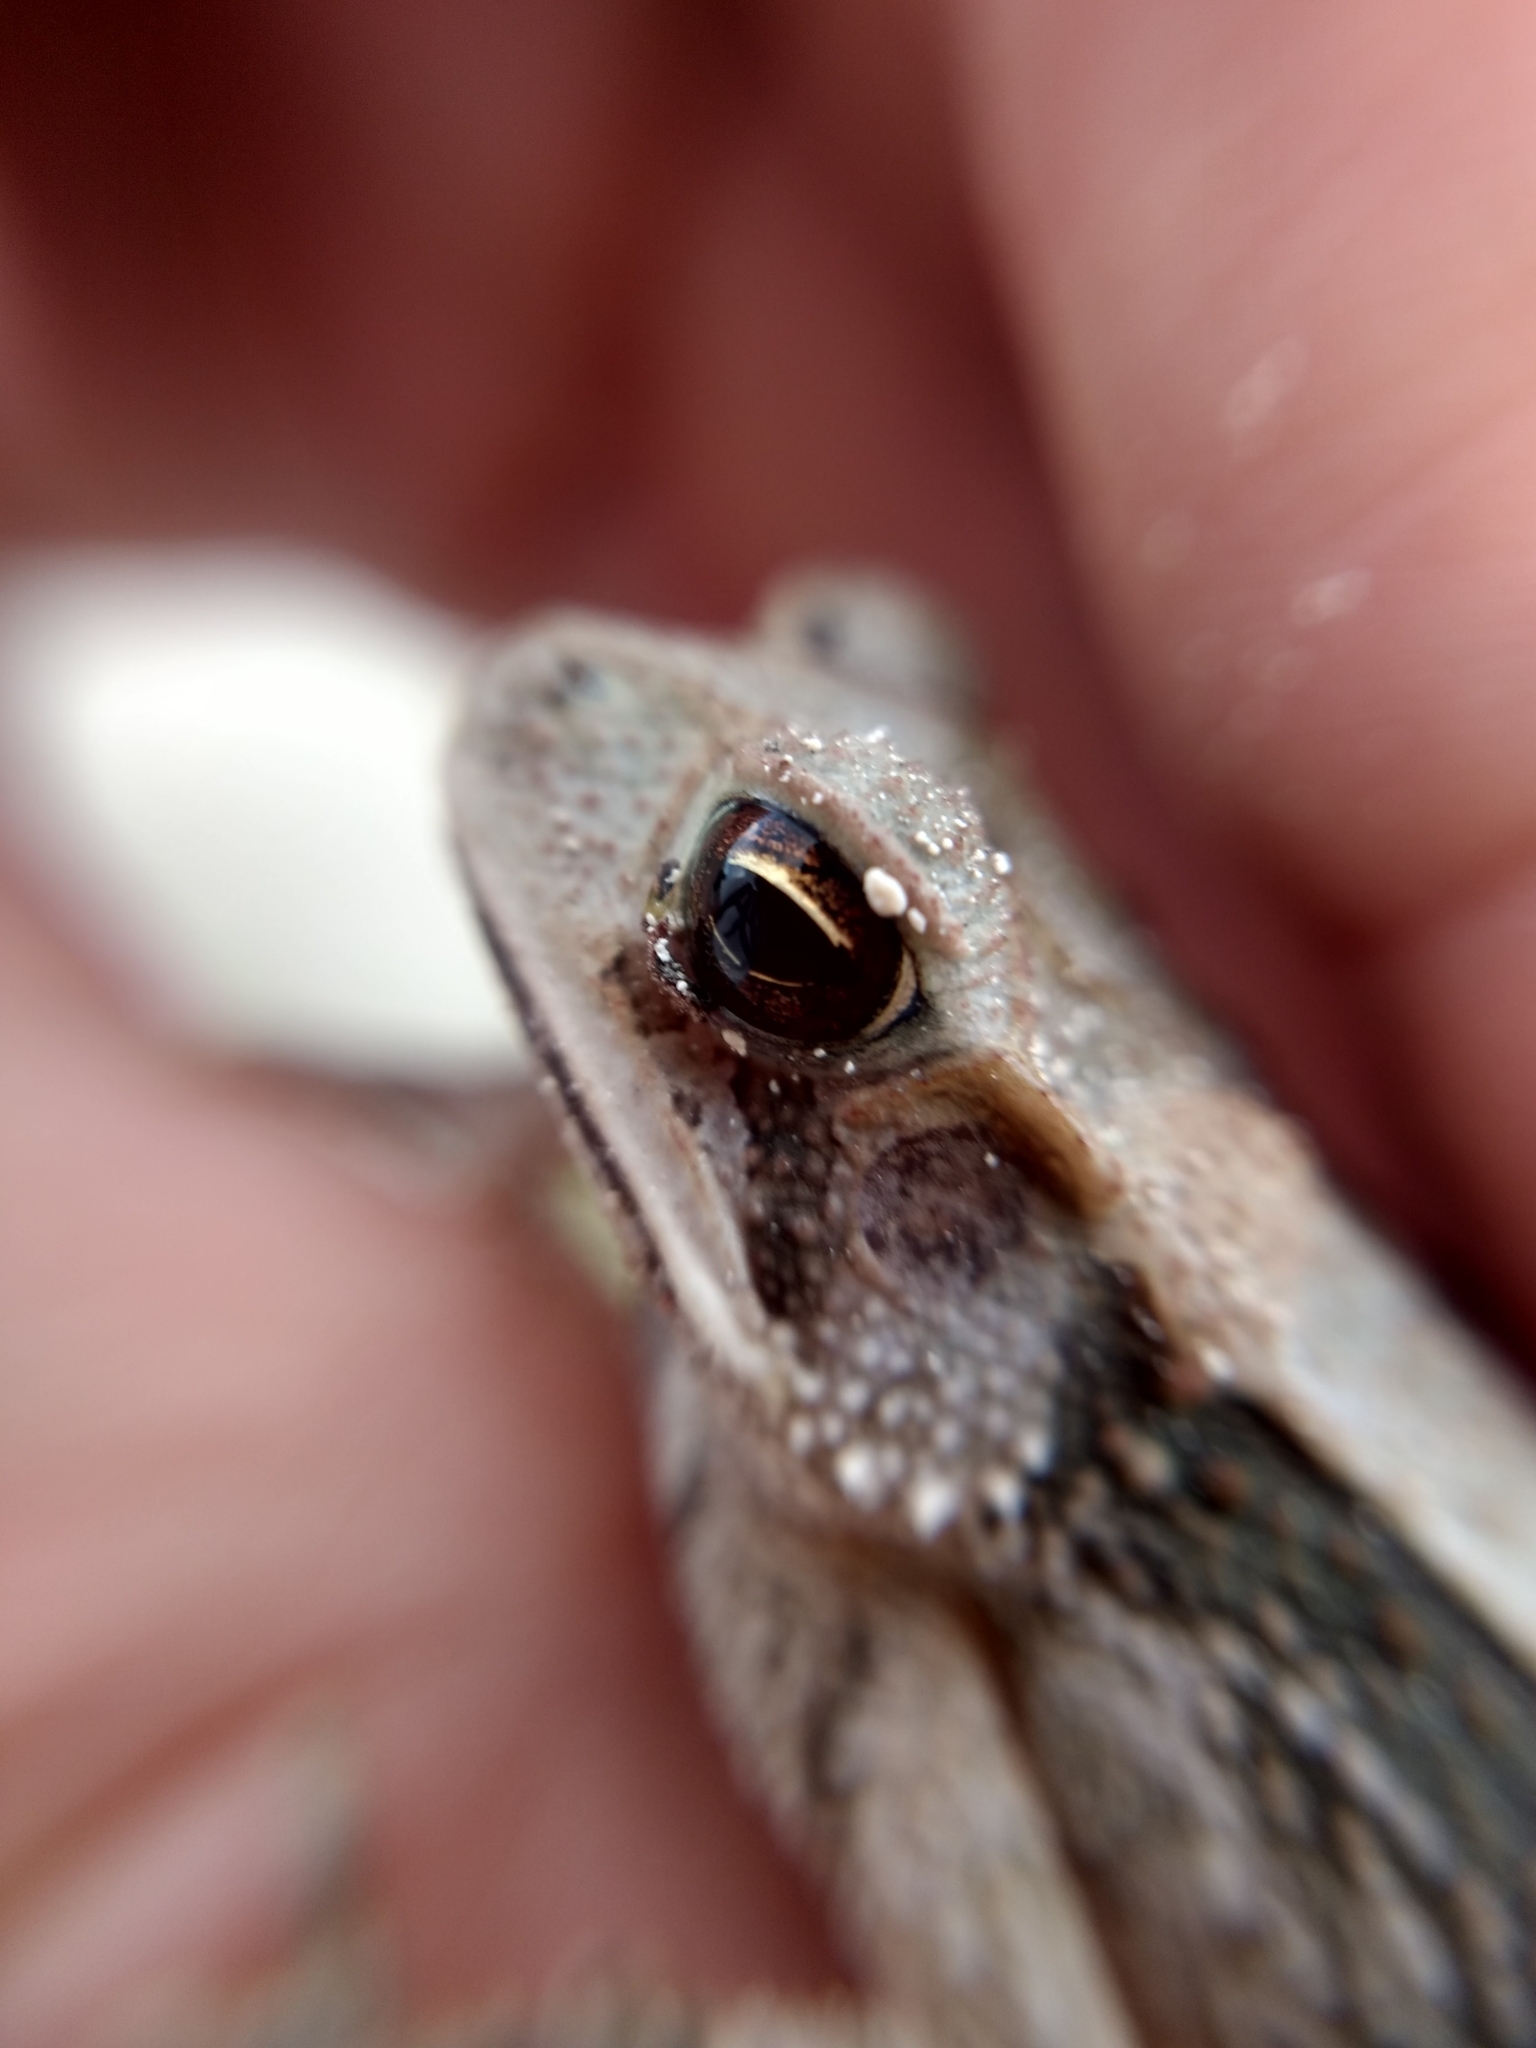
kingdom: Animalia
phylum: Chordata
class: Amphibia
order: Anura
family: Bufonidae
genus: Incilius
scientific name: Incilius valliceps
